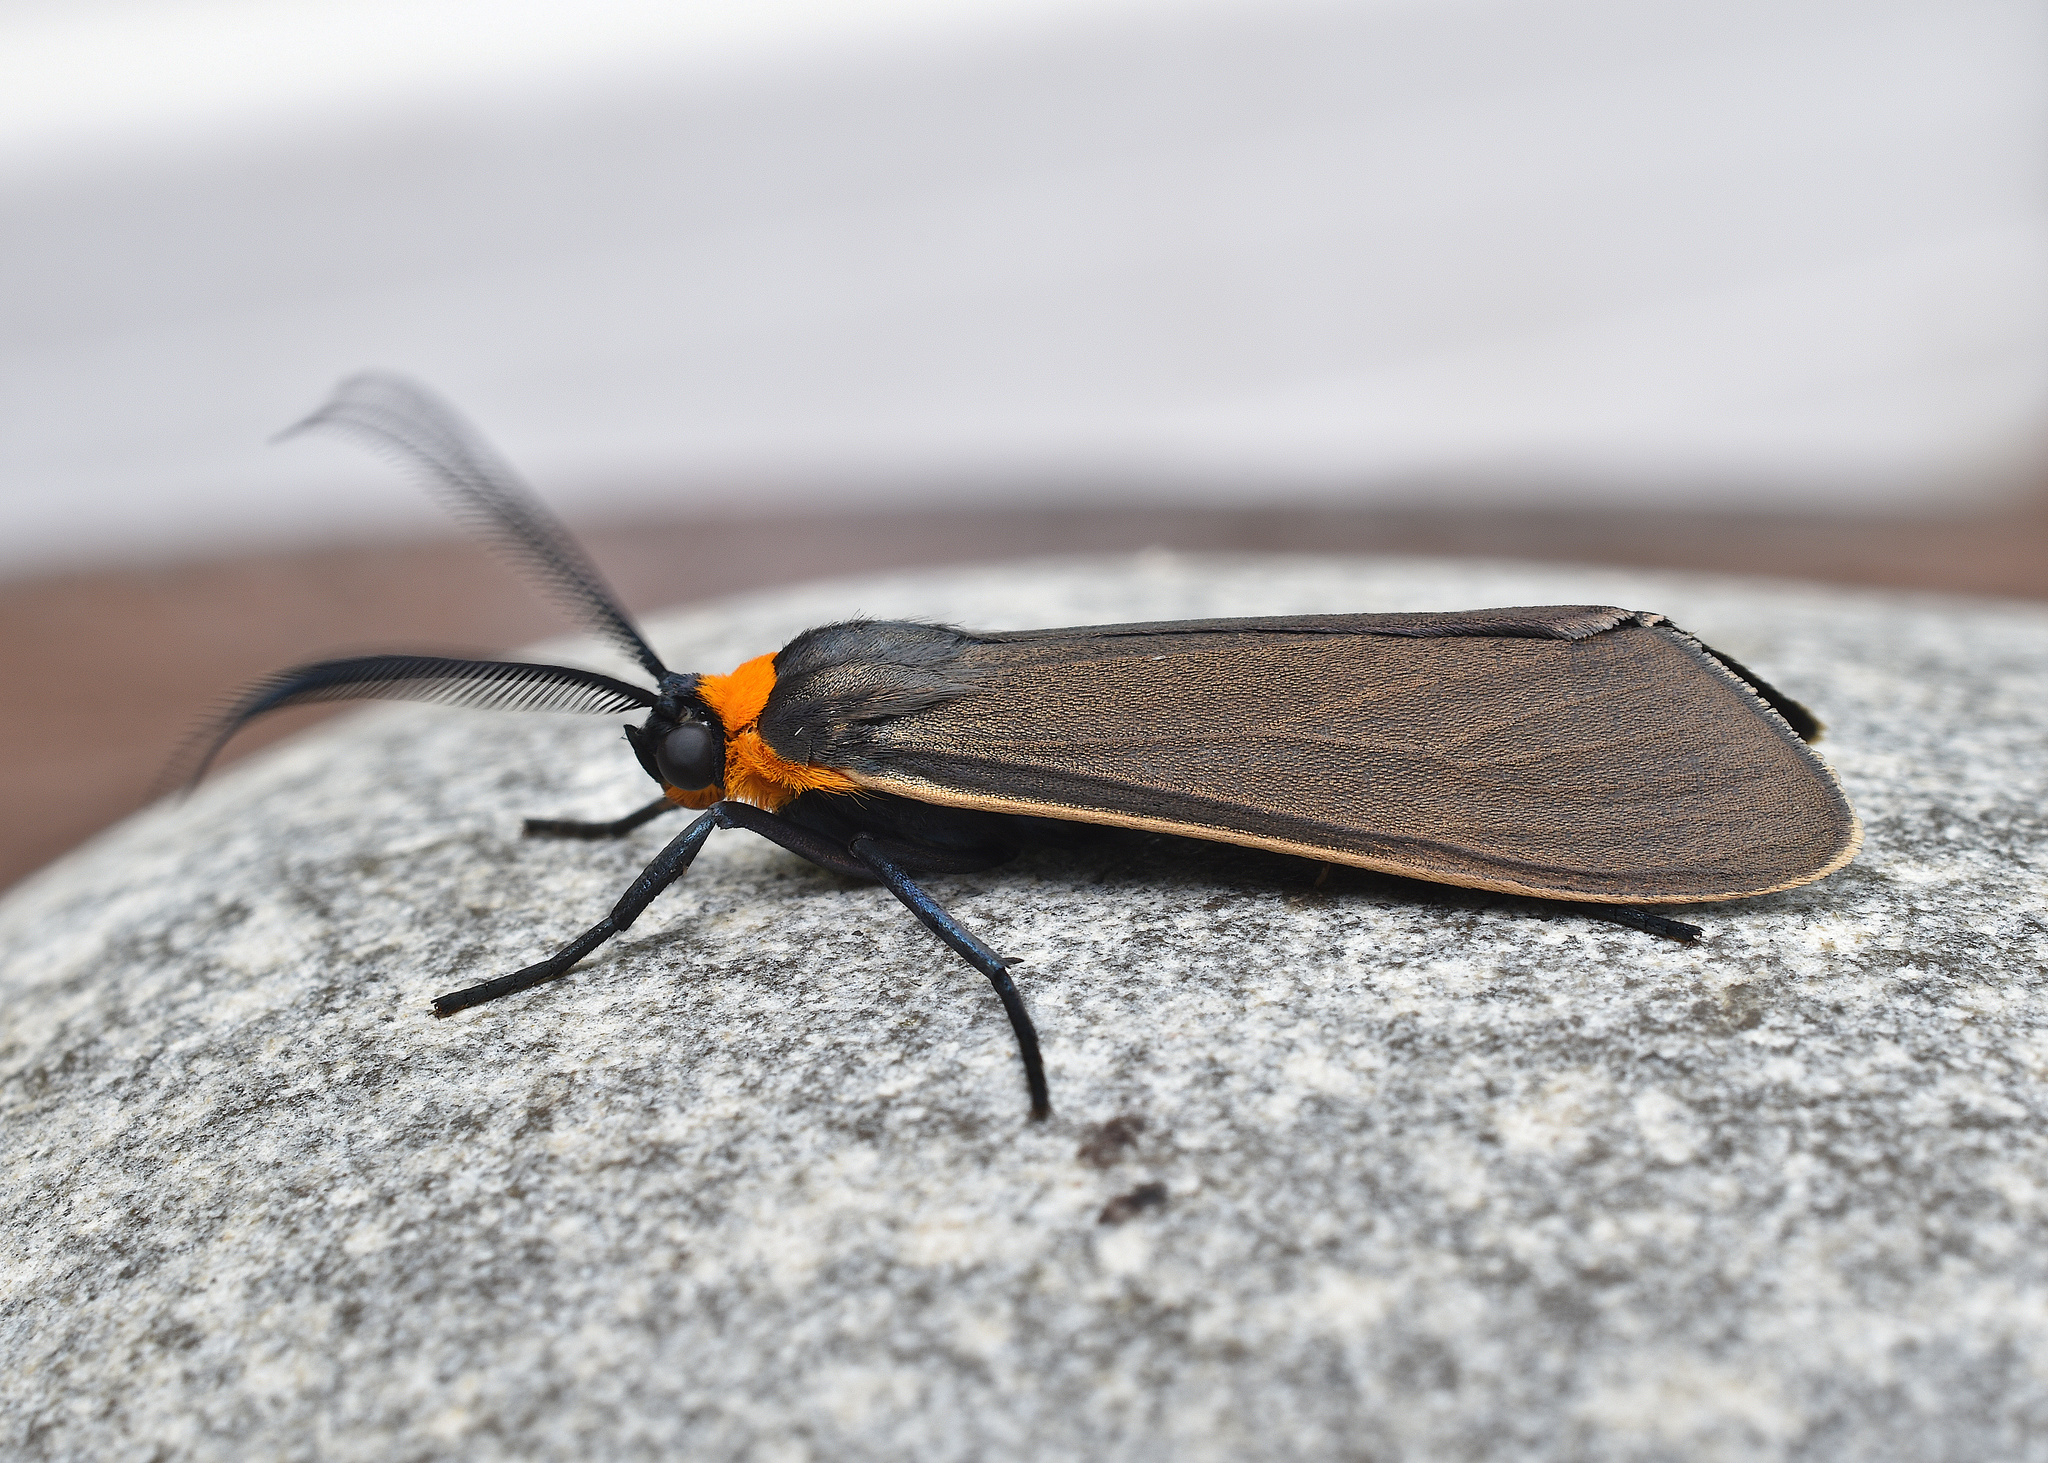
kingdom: Animalia
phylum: Arthropoda
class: Insecta
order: Lepidoptera
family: Erebidae
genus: Cisseps
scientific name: Cisseps fulvicollis
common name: Yellow-collared scape moth
